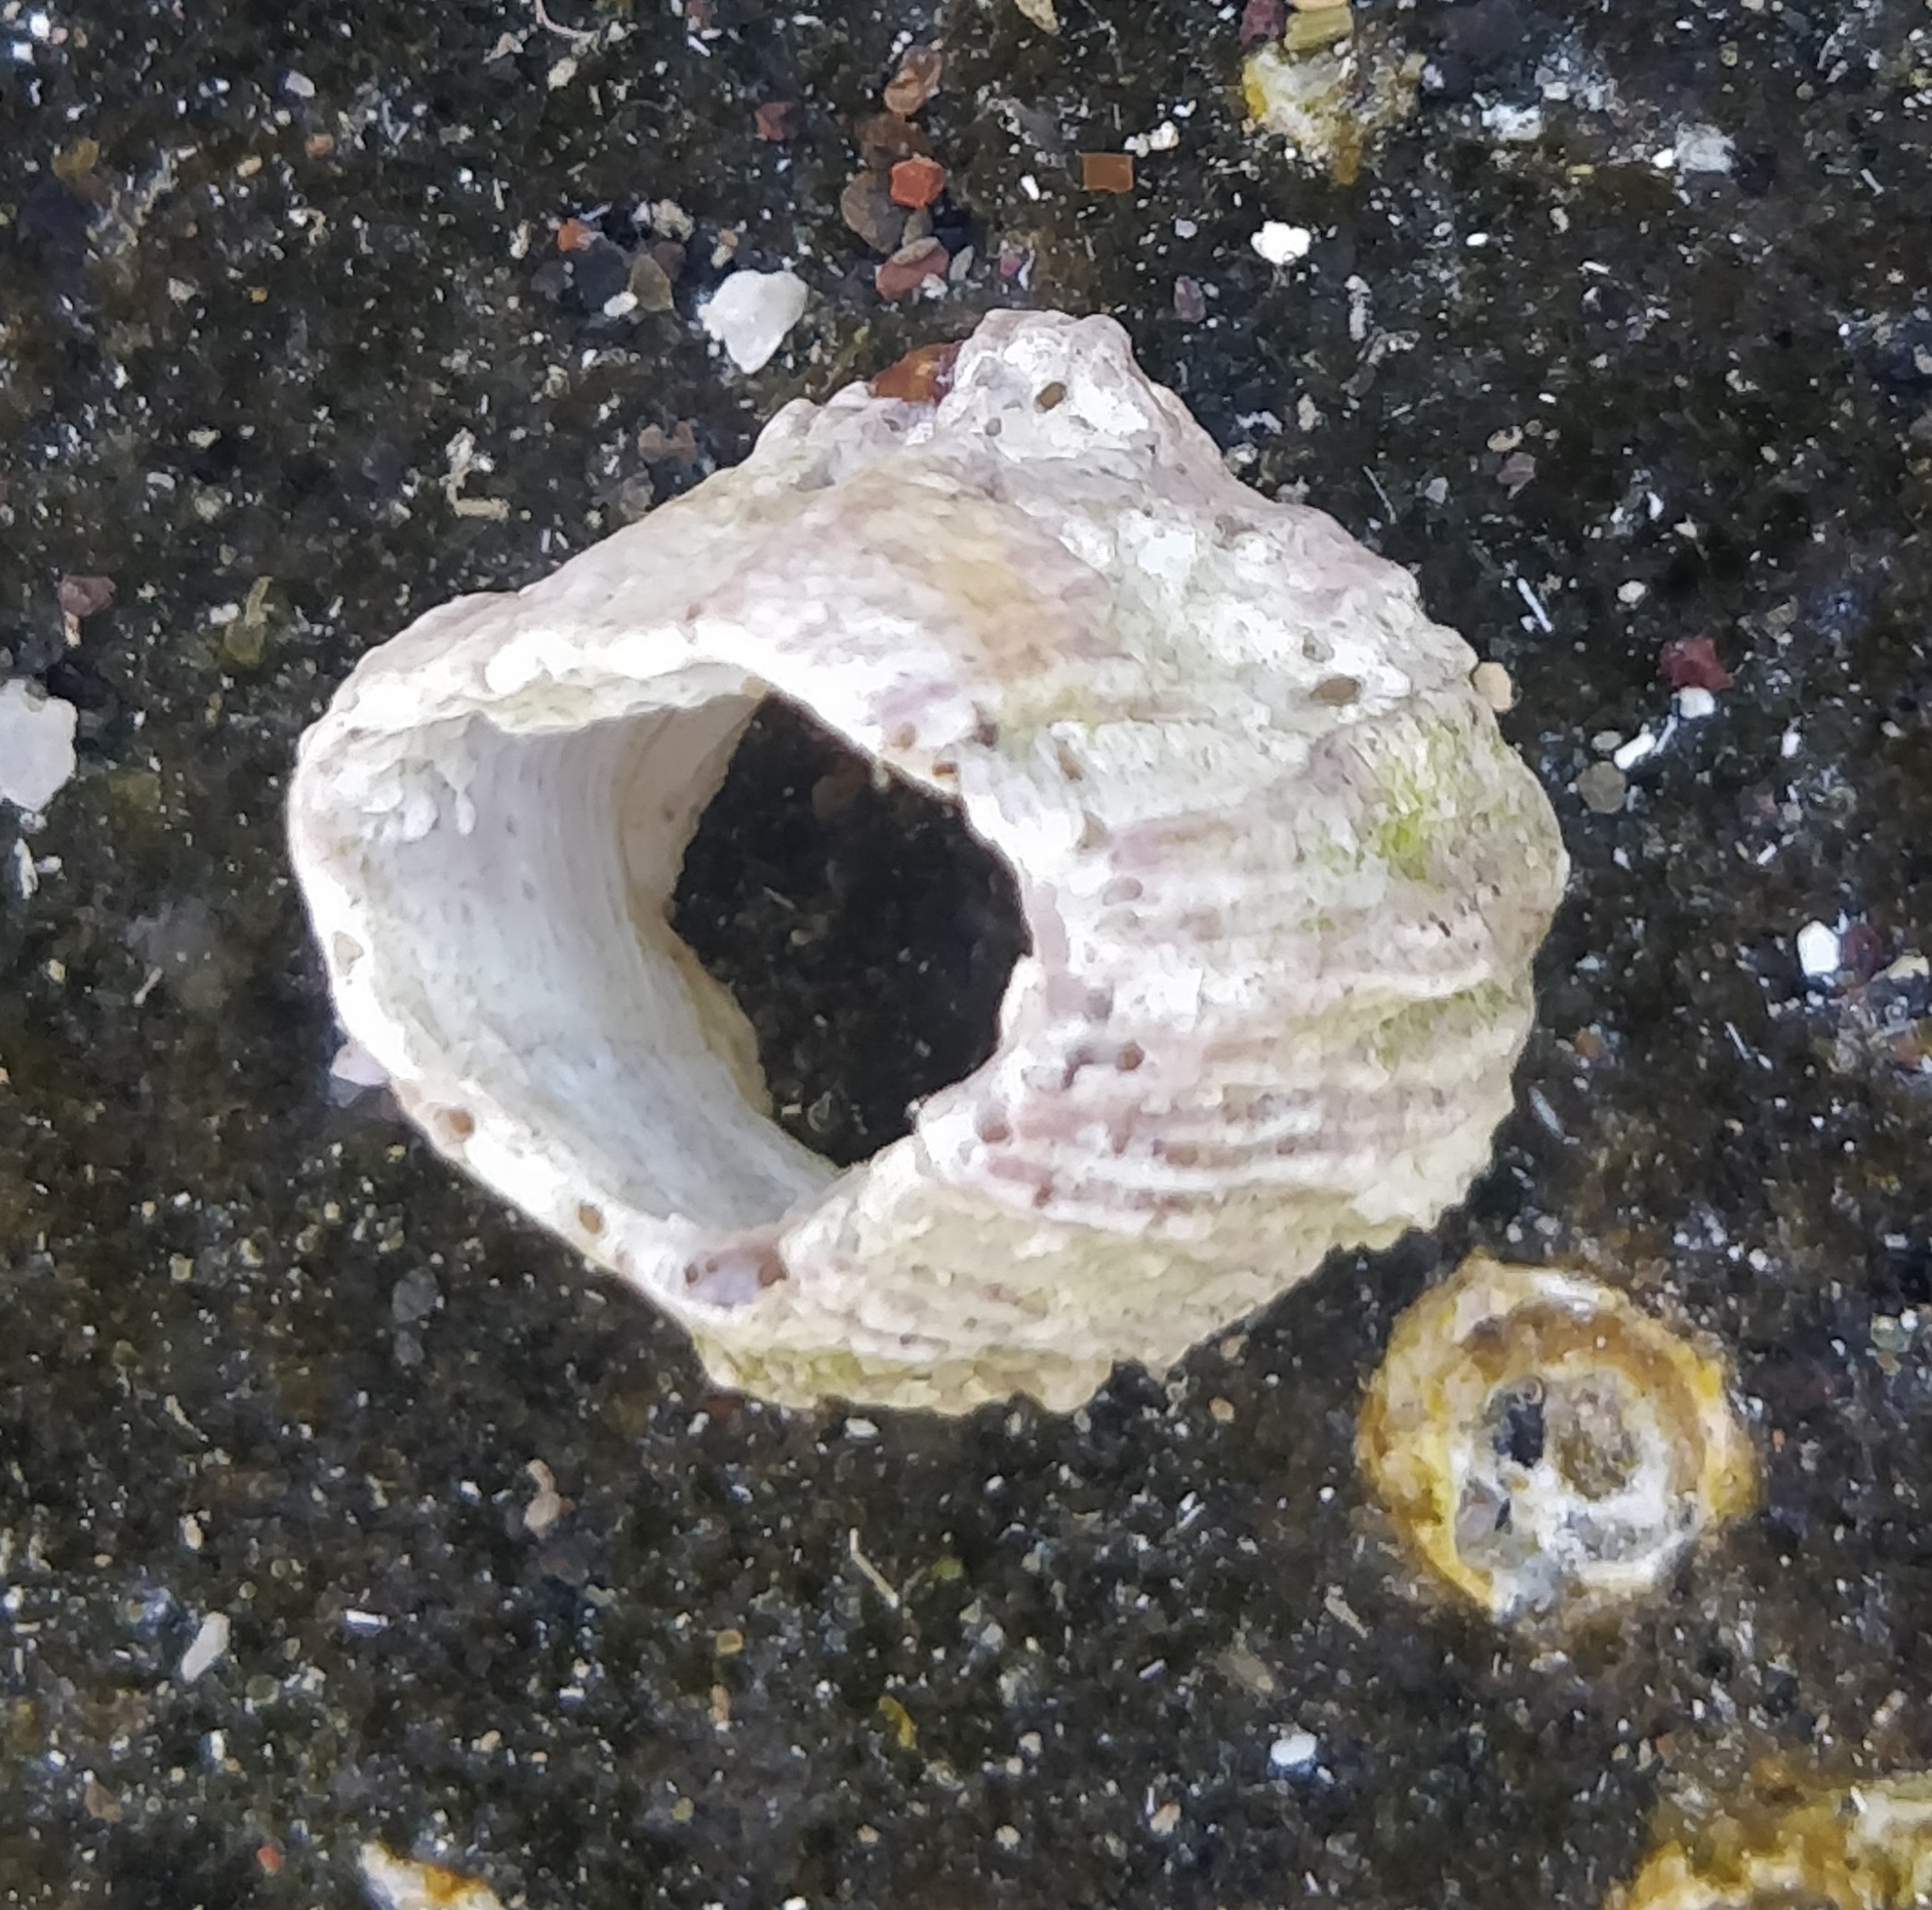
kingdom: Animalia
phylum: Arthropoda
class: Maxillopoda
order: Sessilia
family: Balanidae
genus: Megabalanus
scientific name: Megabalanus azoricus
